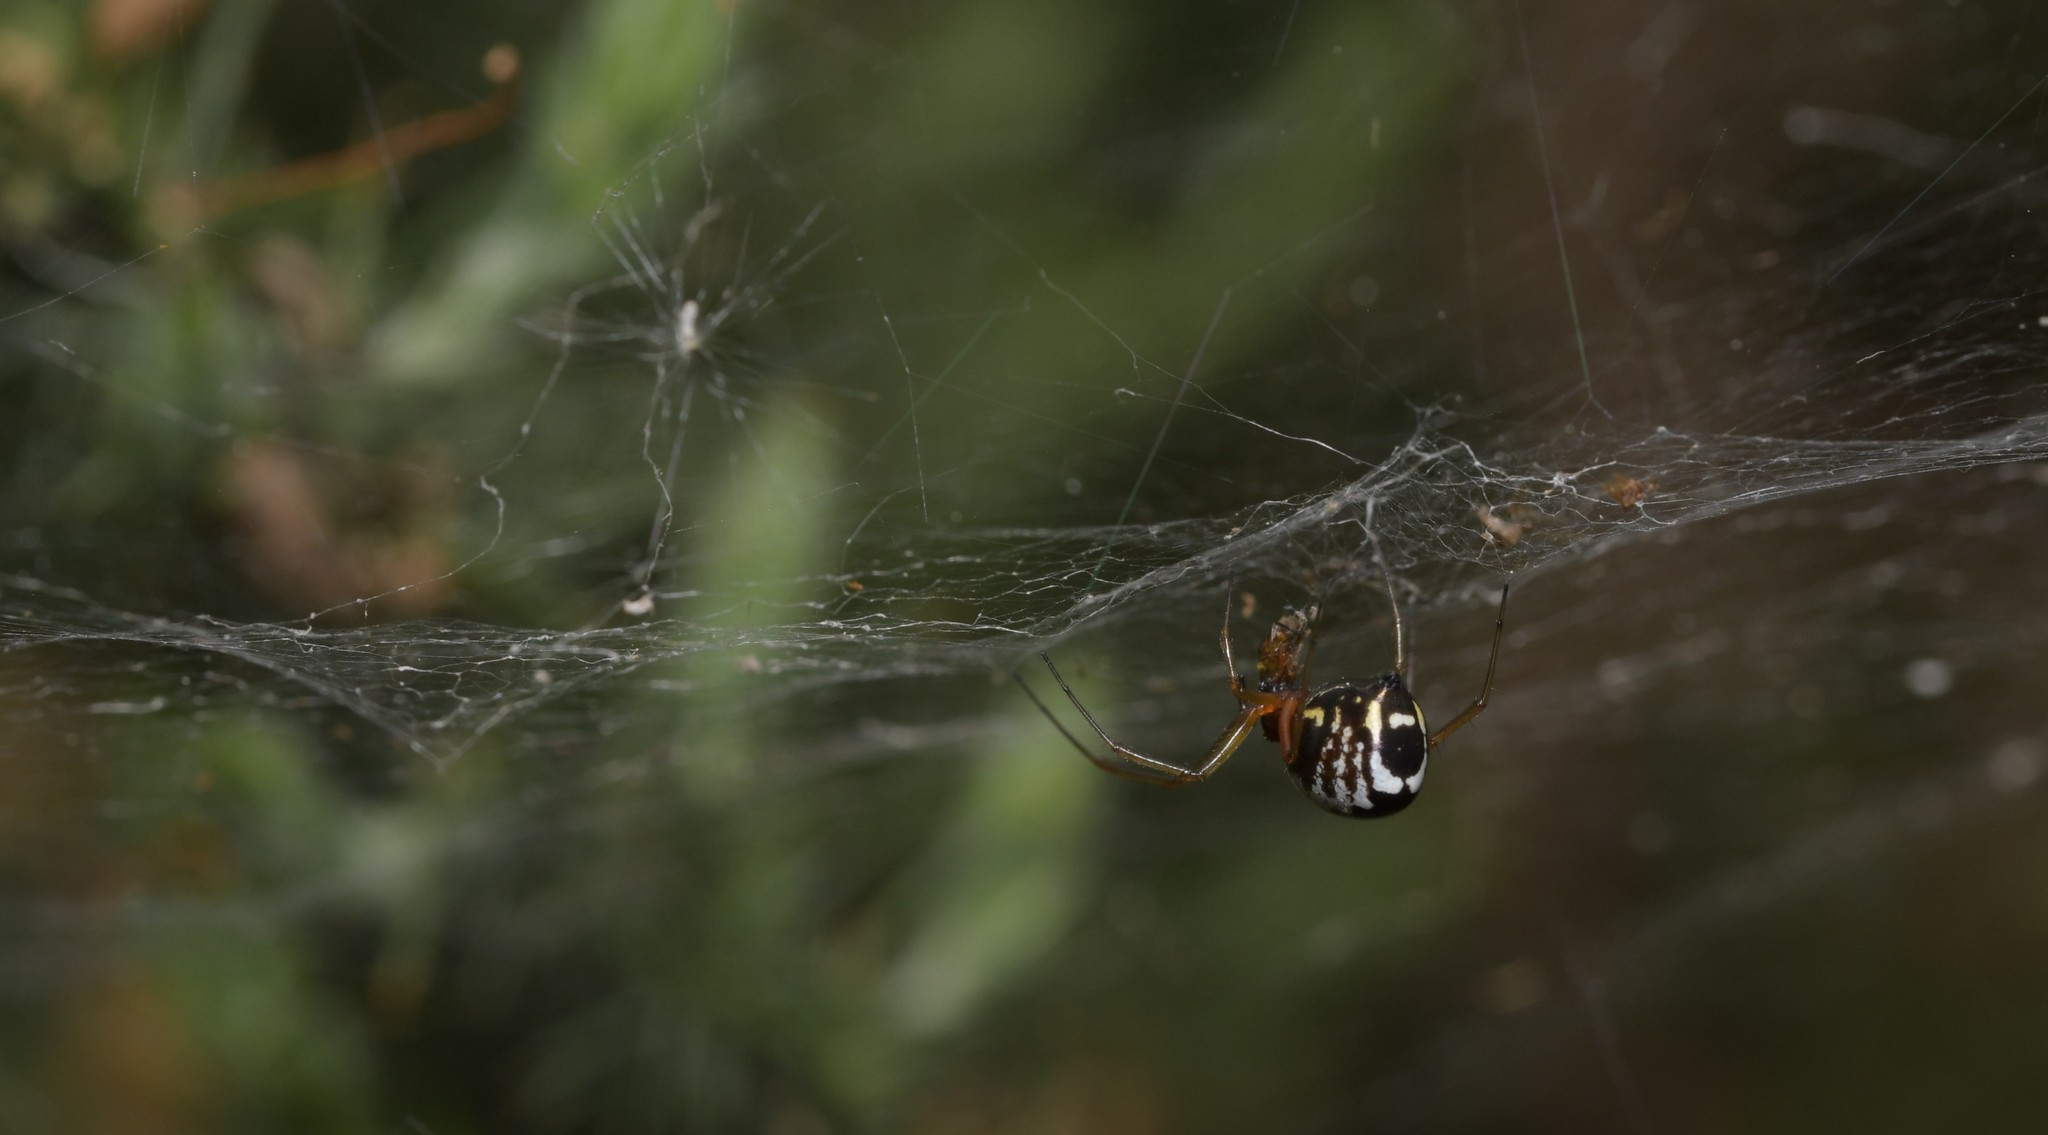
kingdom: Animalia
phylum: Arthropoda
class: Arachnida
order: Araneae
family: Linyphiidae
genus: Frontinellina
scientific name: Frontinellina frutetorum
